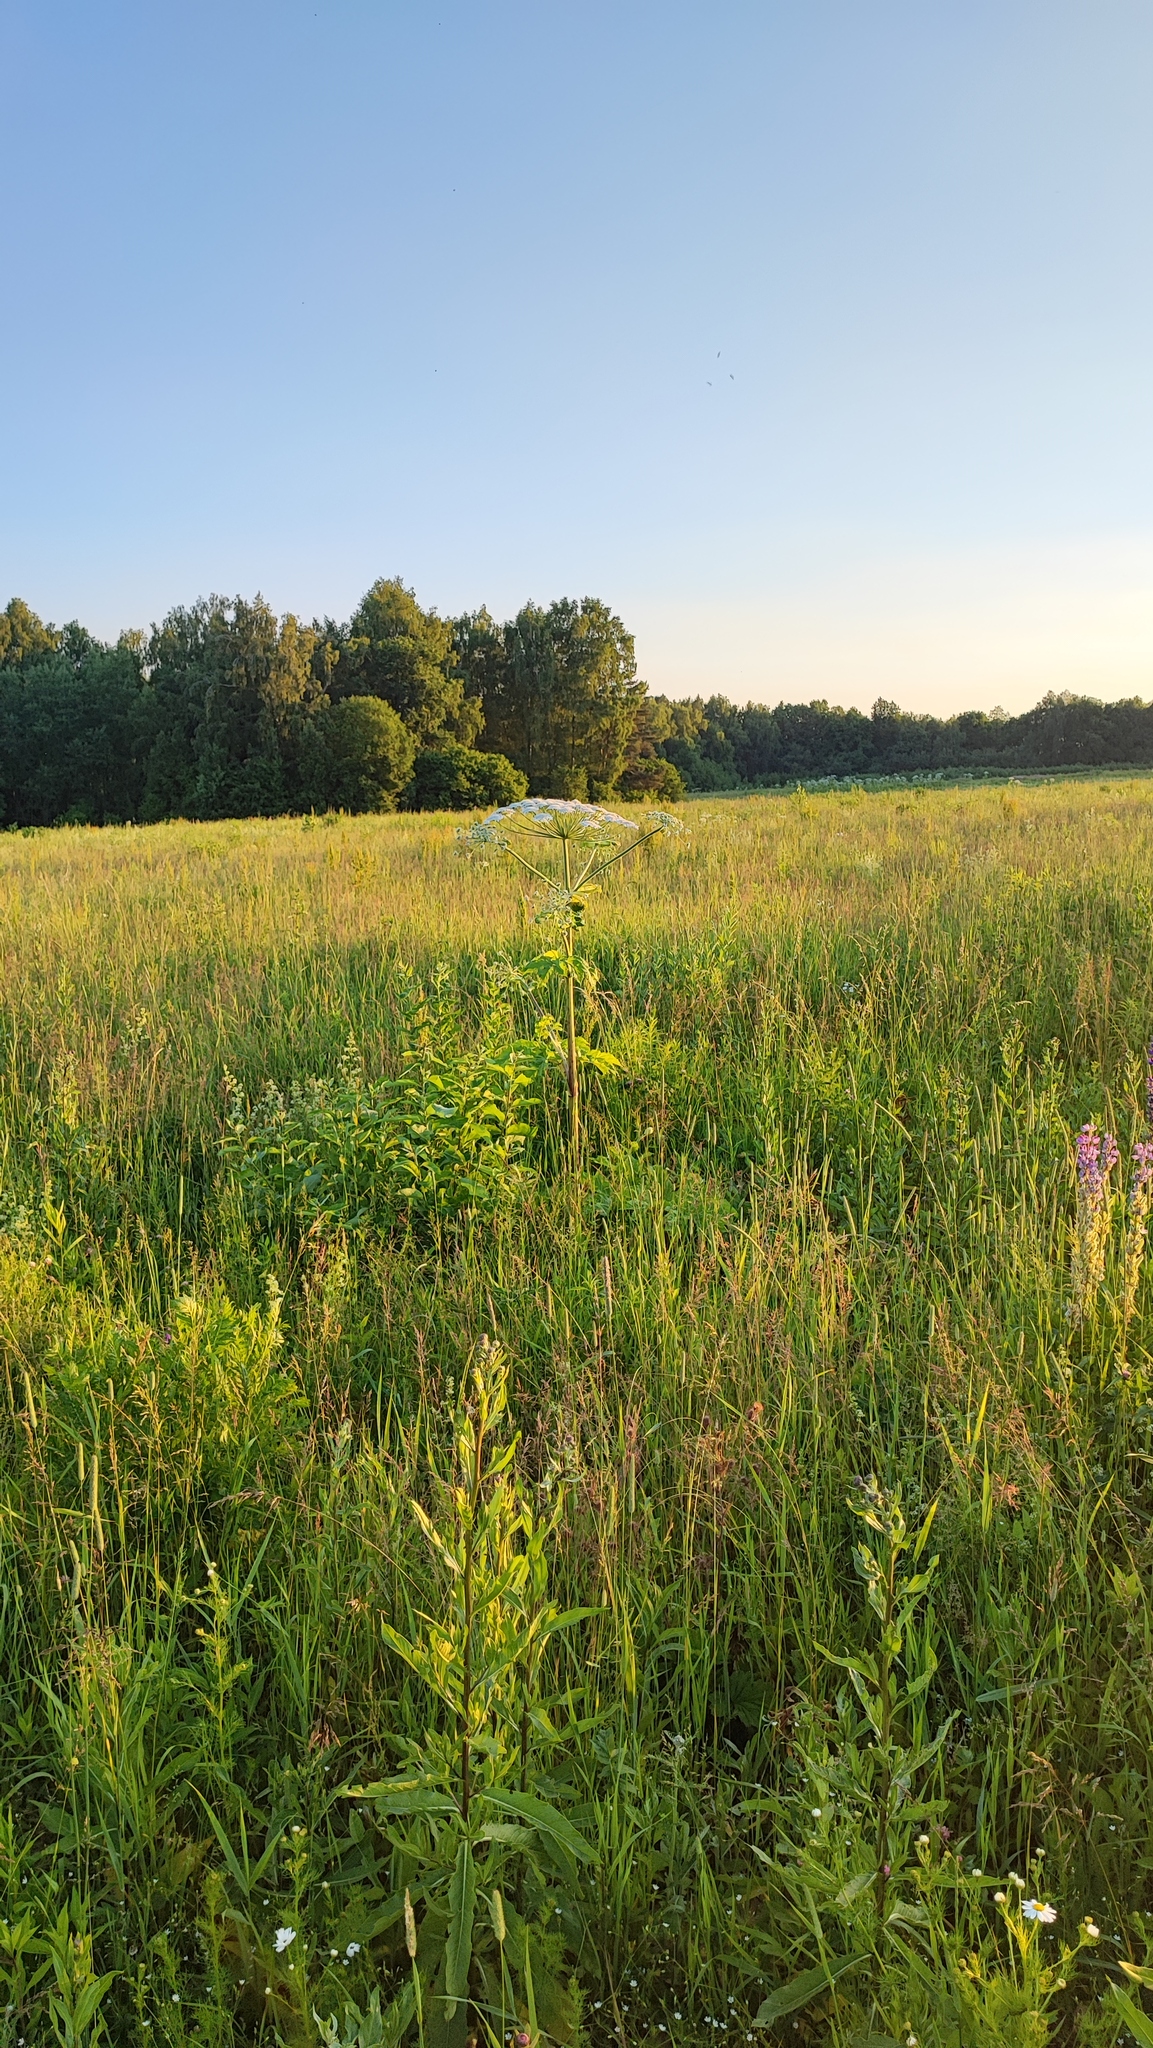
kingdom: Plantae
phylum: Tracheophyta
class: Magnoliopsida
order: Apiales
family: Apiaceae
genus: Heracleum
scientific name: Heracleum sosnowskyi
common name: Sosnowsky's hogweed
